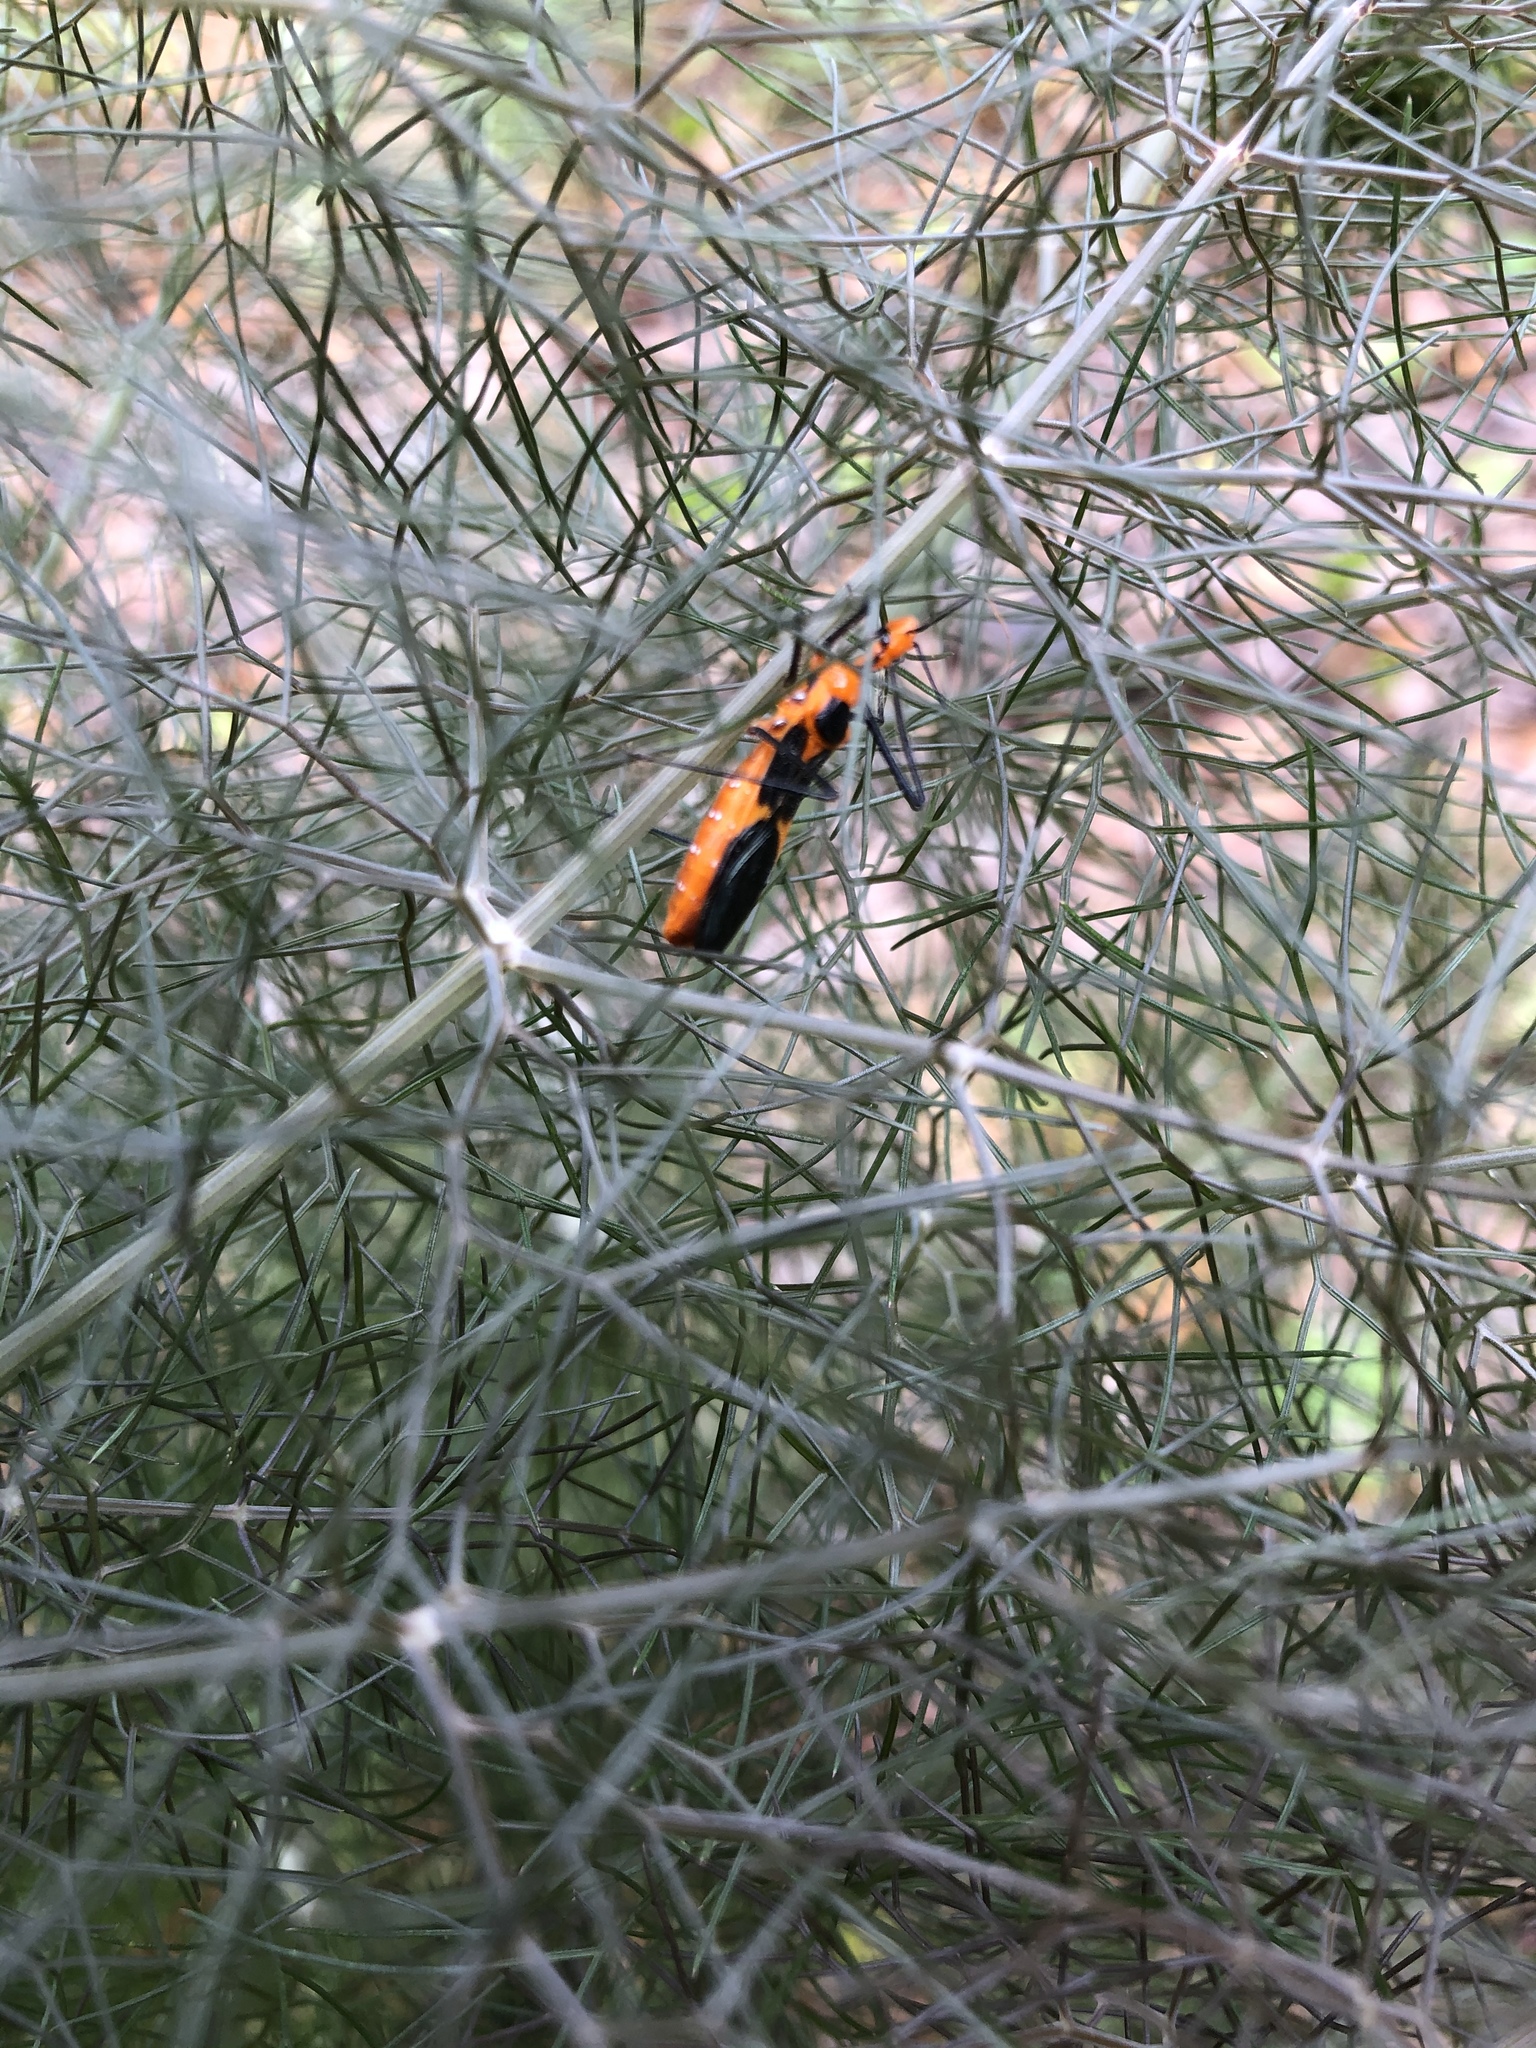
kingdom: Animalia
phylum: Arthropoda
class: Insecta
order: Hemiptera
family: Reduviidae
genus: Zelus
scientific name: Zelus longipes
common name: Milkweed assassin bug
